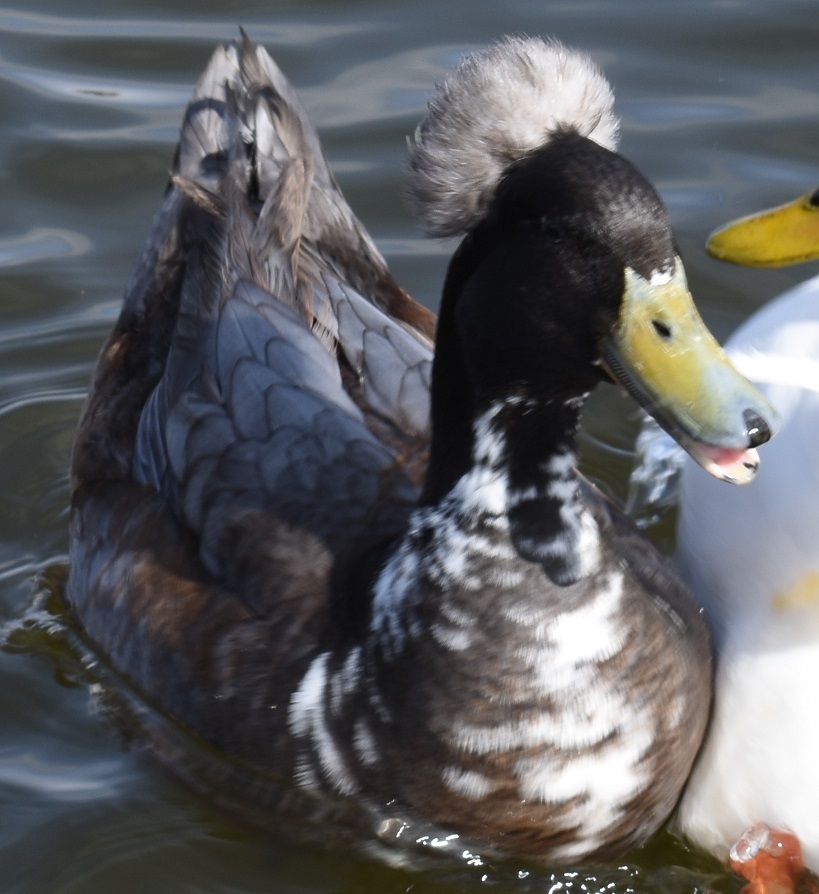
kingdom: Animalia
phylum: Chordata
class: Aves
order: Anseriformes
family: Anatidae
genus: Anas
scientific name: Anas platyrhynchos
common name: Mallard
